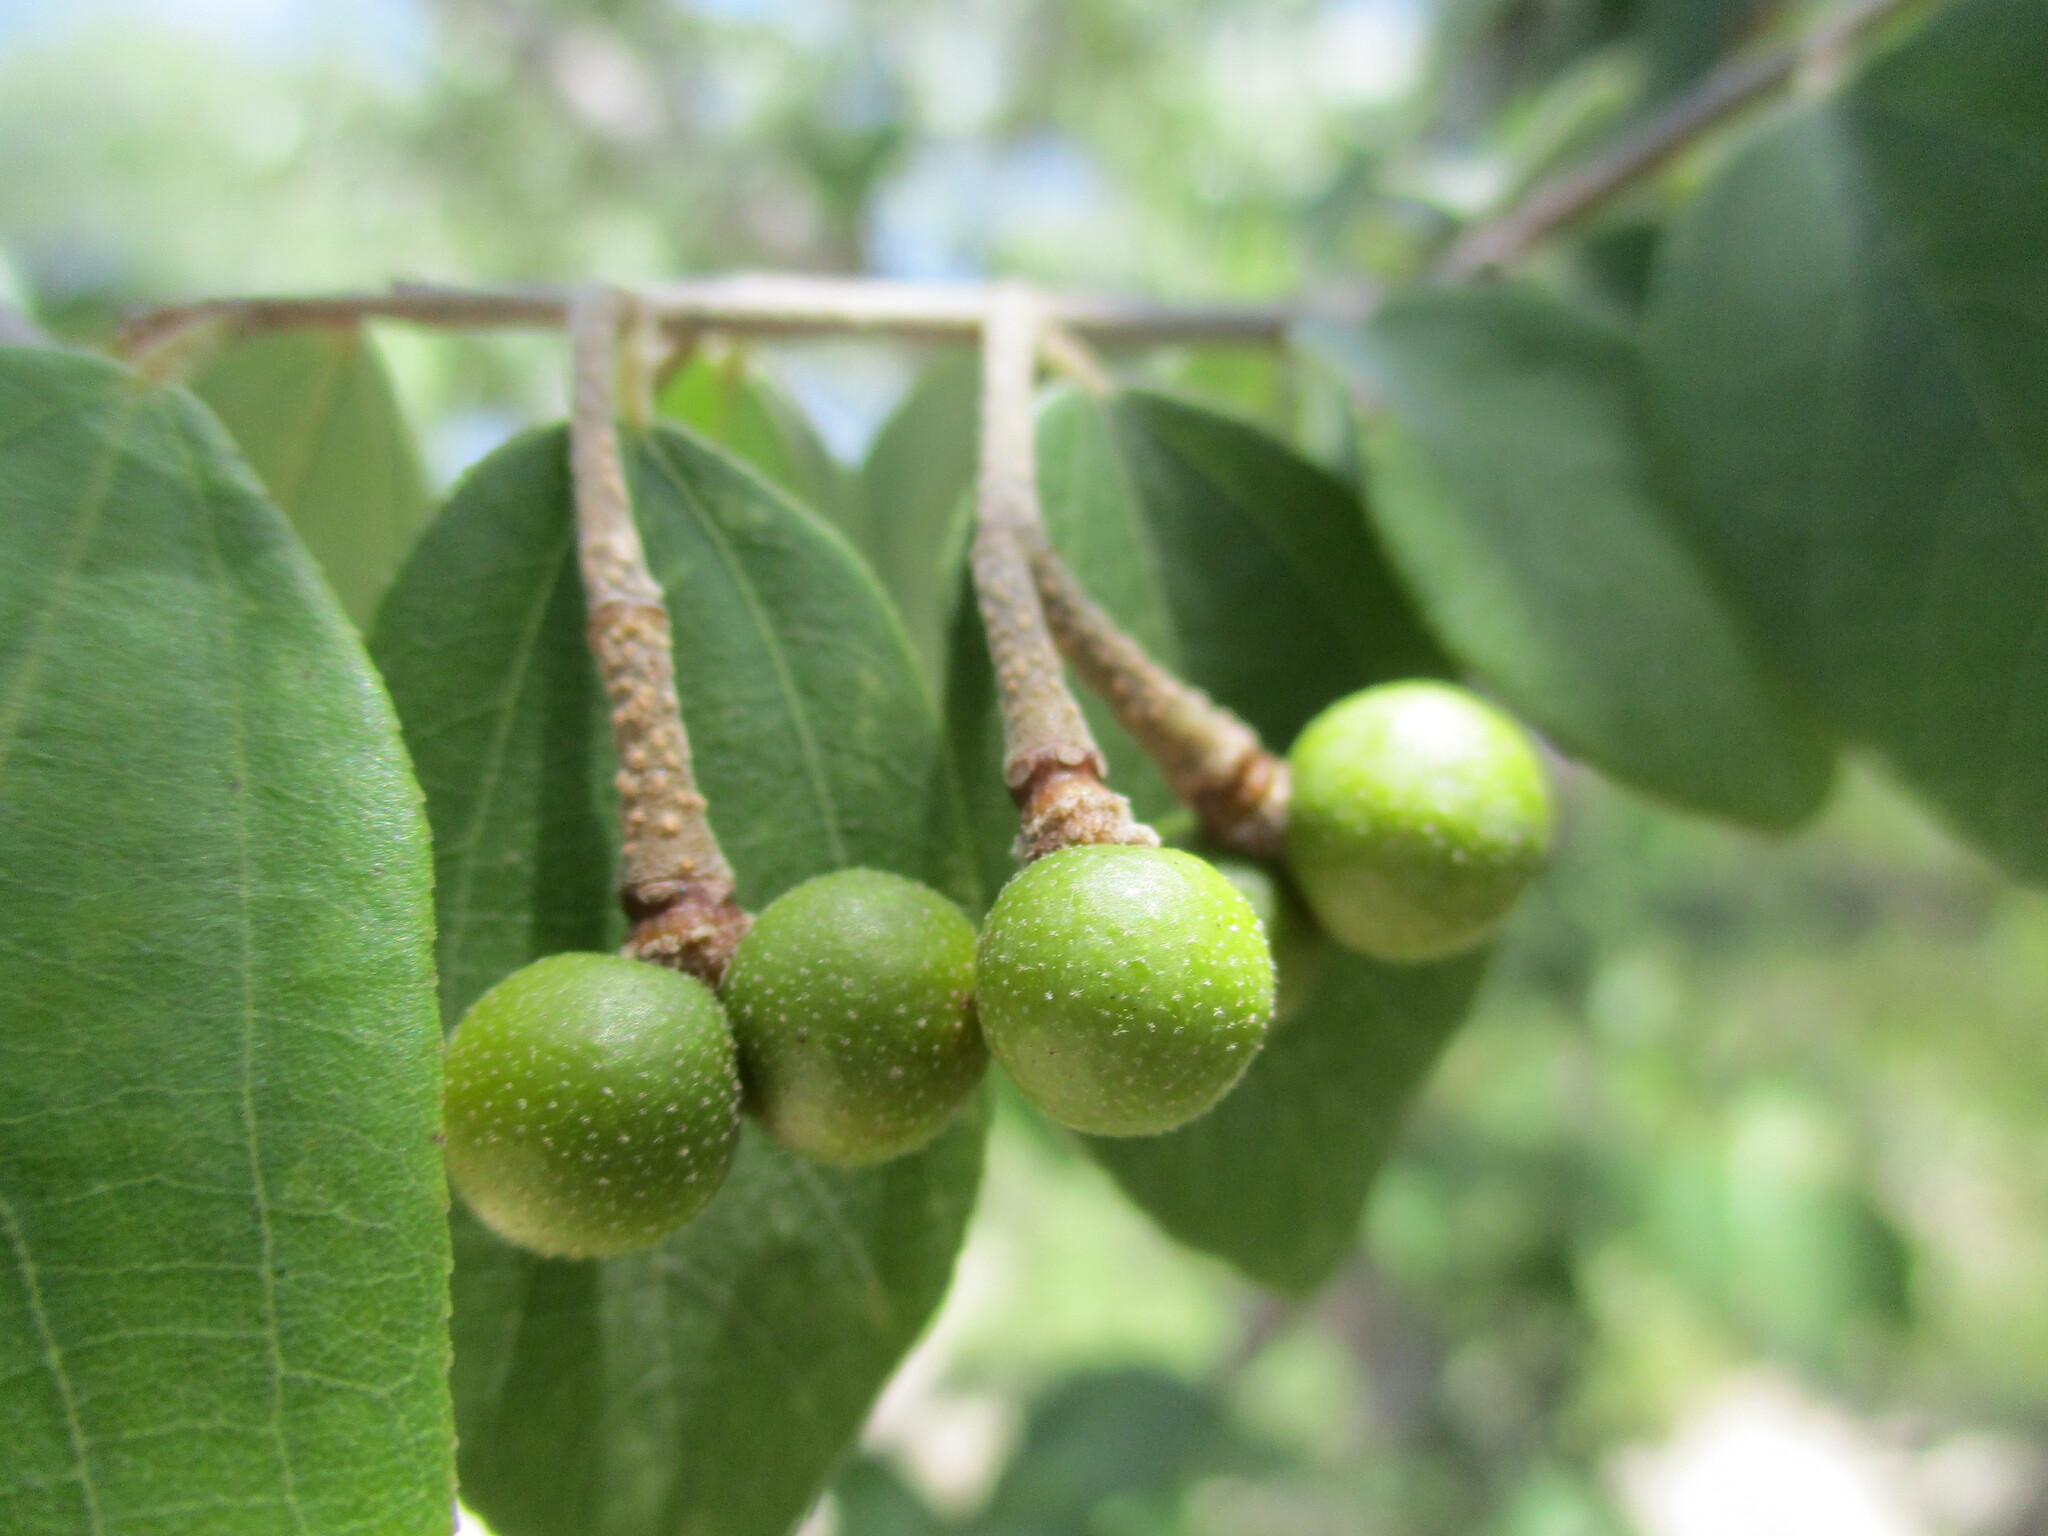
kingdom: Plantae
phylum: Tracheophyta
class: Magnoliopsida
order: Malvales
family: Malvaceae
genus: Grewia
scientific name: Grewia bicolor
